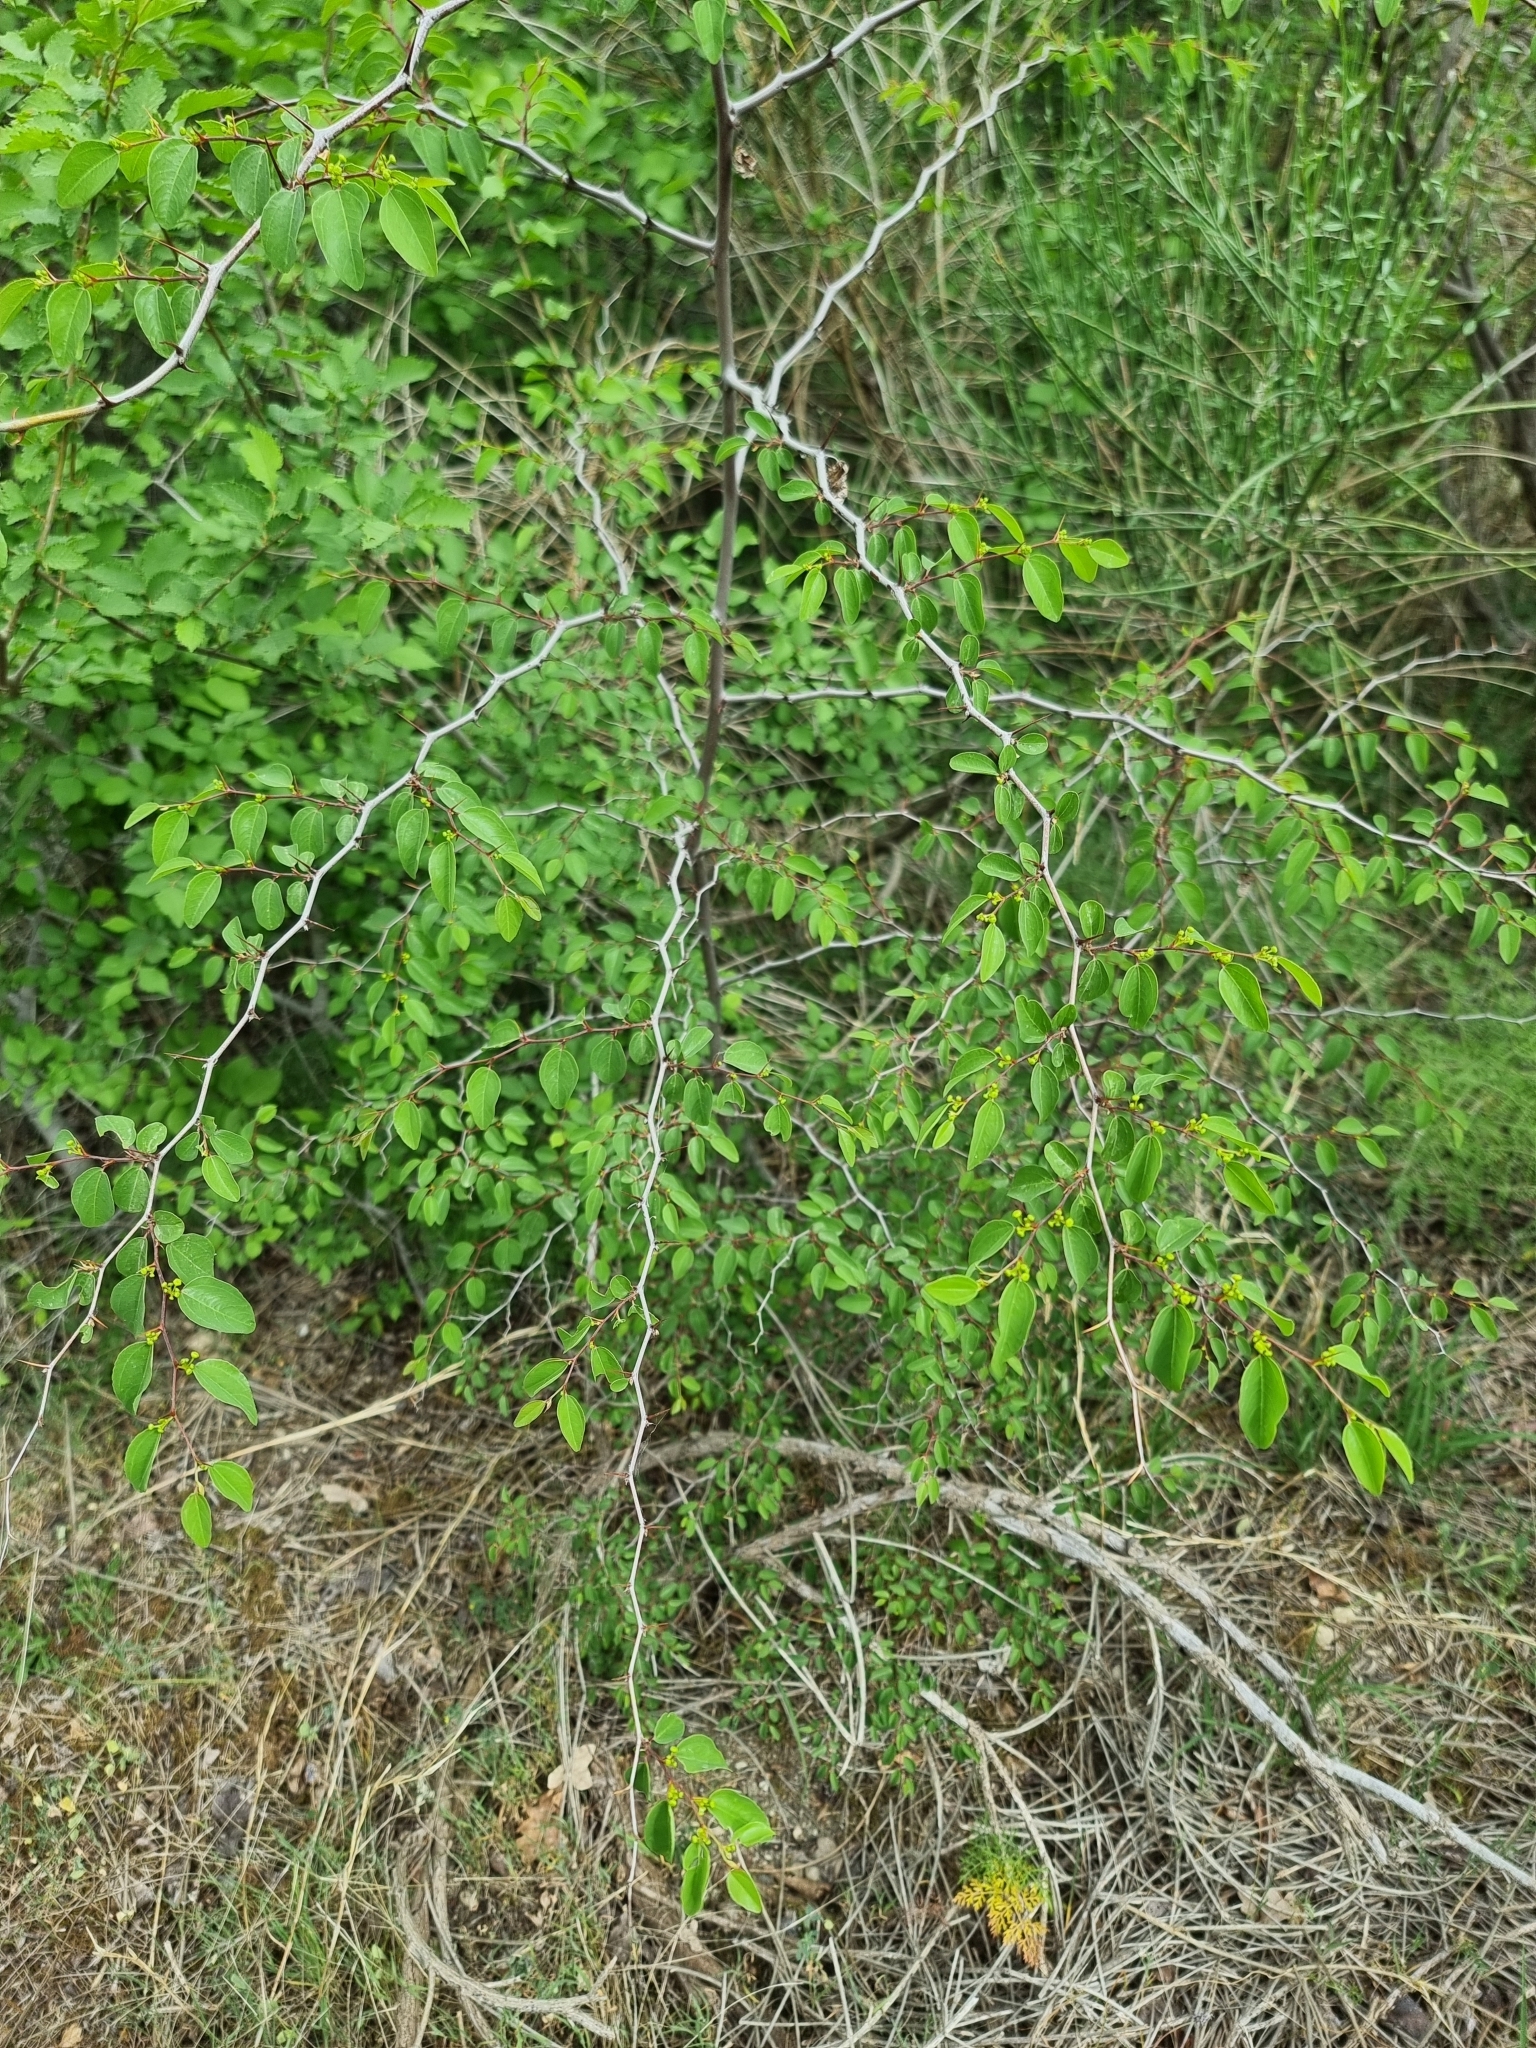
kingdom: Plantae
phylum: Tracheophyta
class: Magnoliopsida
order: Rosales
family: Rhamnaceae
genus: Paliurus
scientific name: Paliurus spina-christi
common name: Jeruselem thorn
